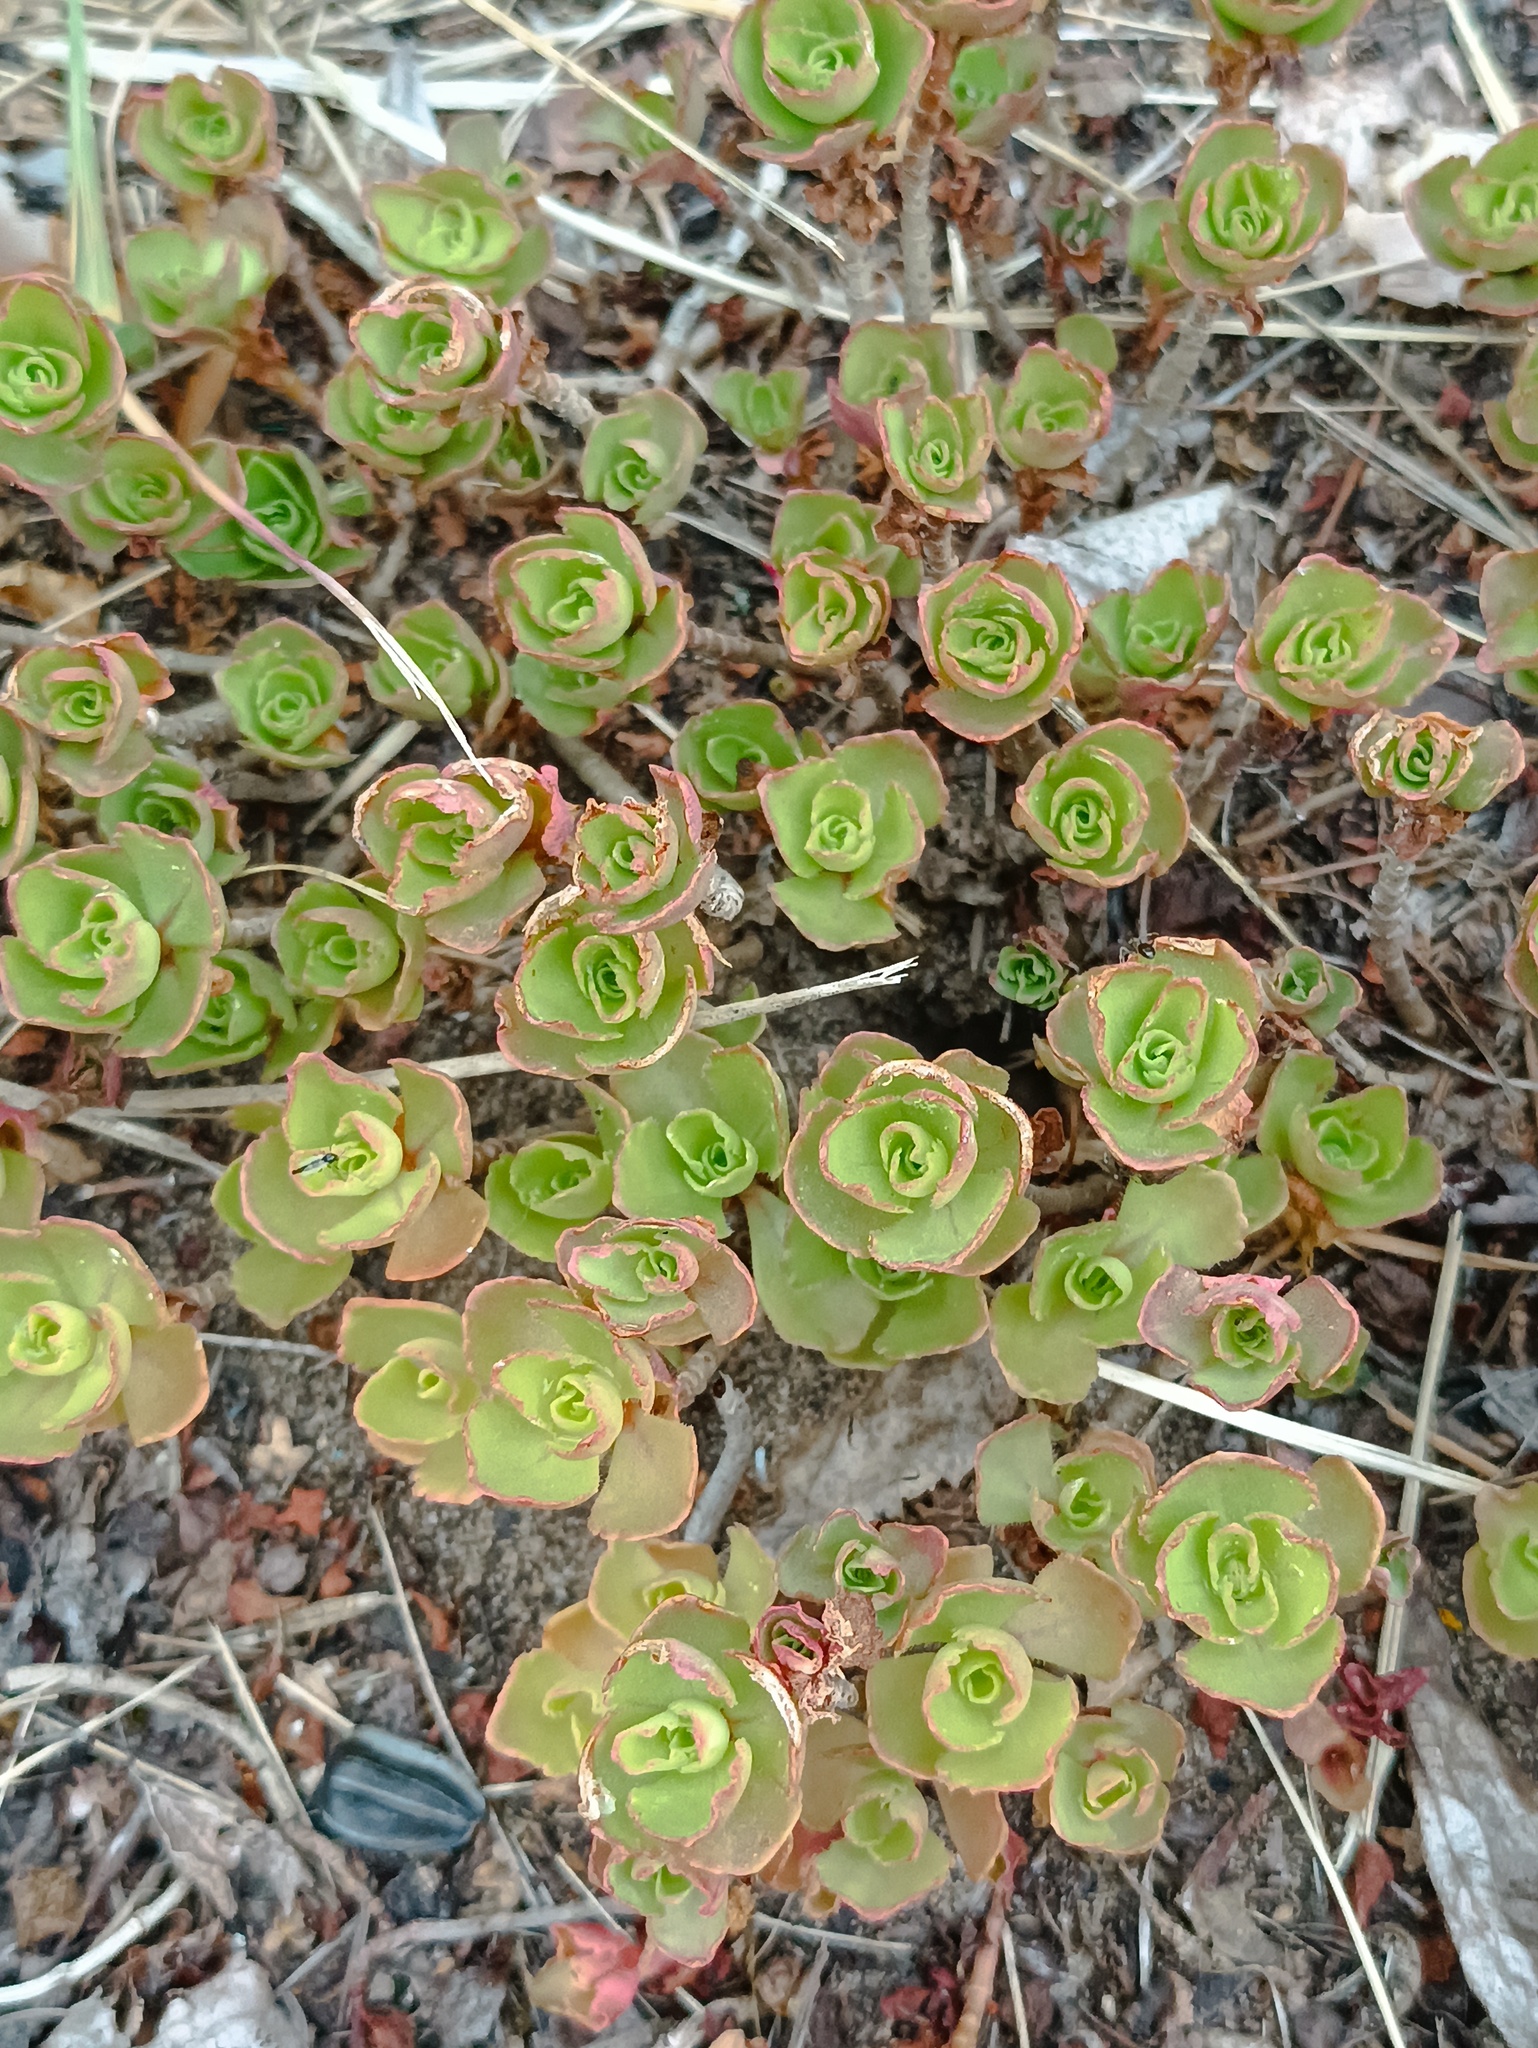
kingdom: Plantae
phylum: Tracheophyta
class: Magnoliopsida
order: Saxifragales
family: Crassulaceae
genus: Phedimus
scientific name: Phedimus spurius
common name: Caucasian stonecrop
